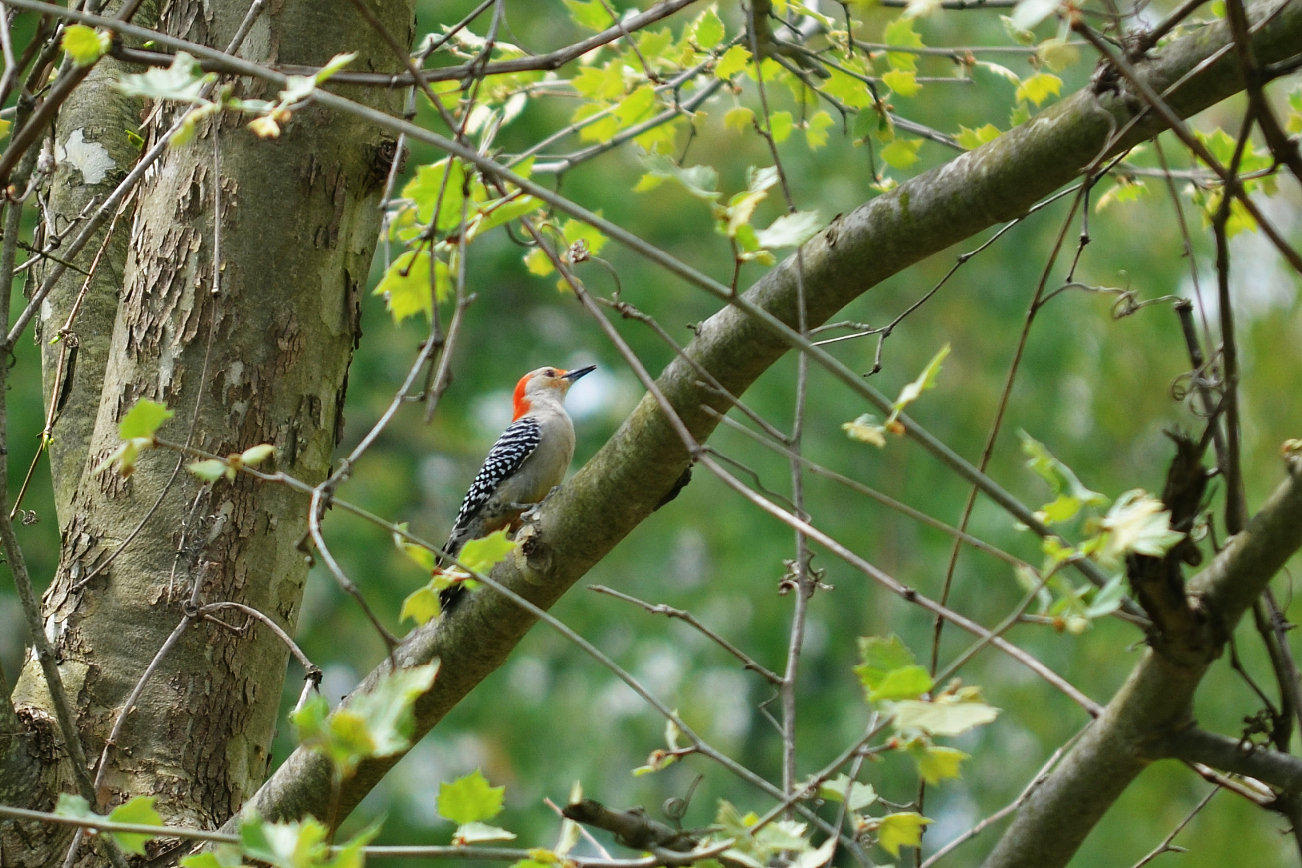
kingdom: Animalia
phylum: Chordata
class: Aves
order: Piciformes
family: Picidae
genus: Melanerpes
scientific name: Melanerpes carolinus
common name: Red-bellied woodpecker
